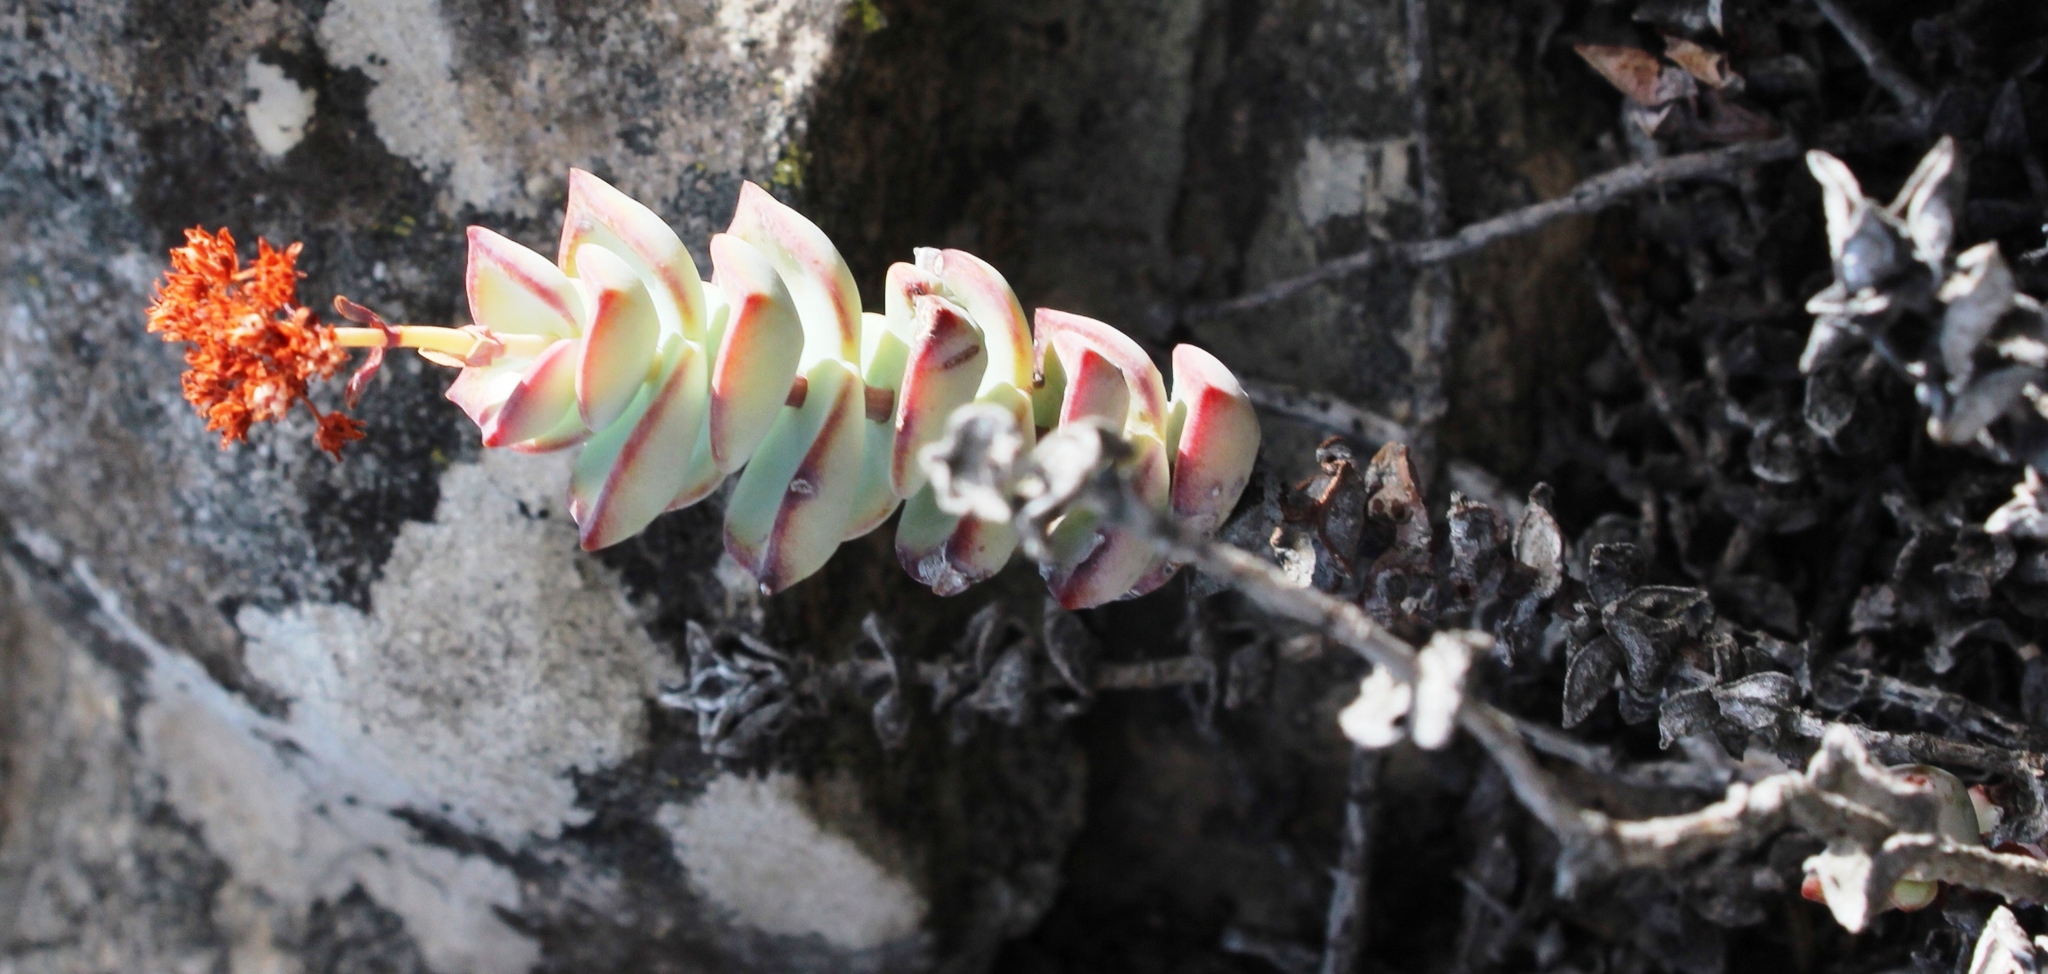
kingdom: Plantae
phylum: Tracheophyta
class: Magnoliopsida
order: Saxifragales
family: Crassulaceae
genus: Crassula
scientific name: Crassula rupestris
